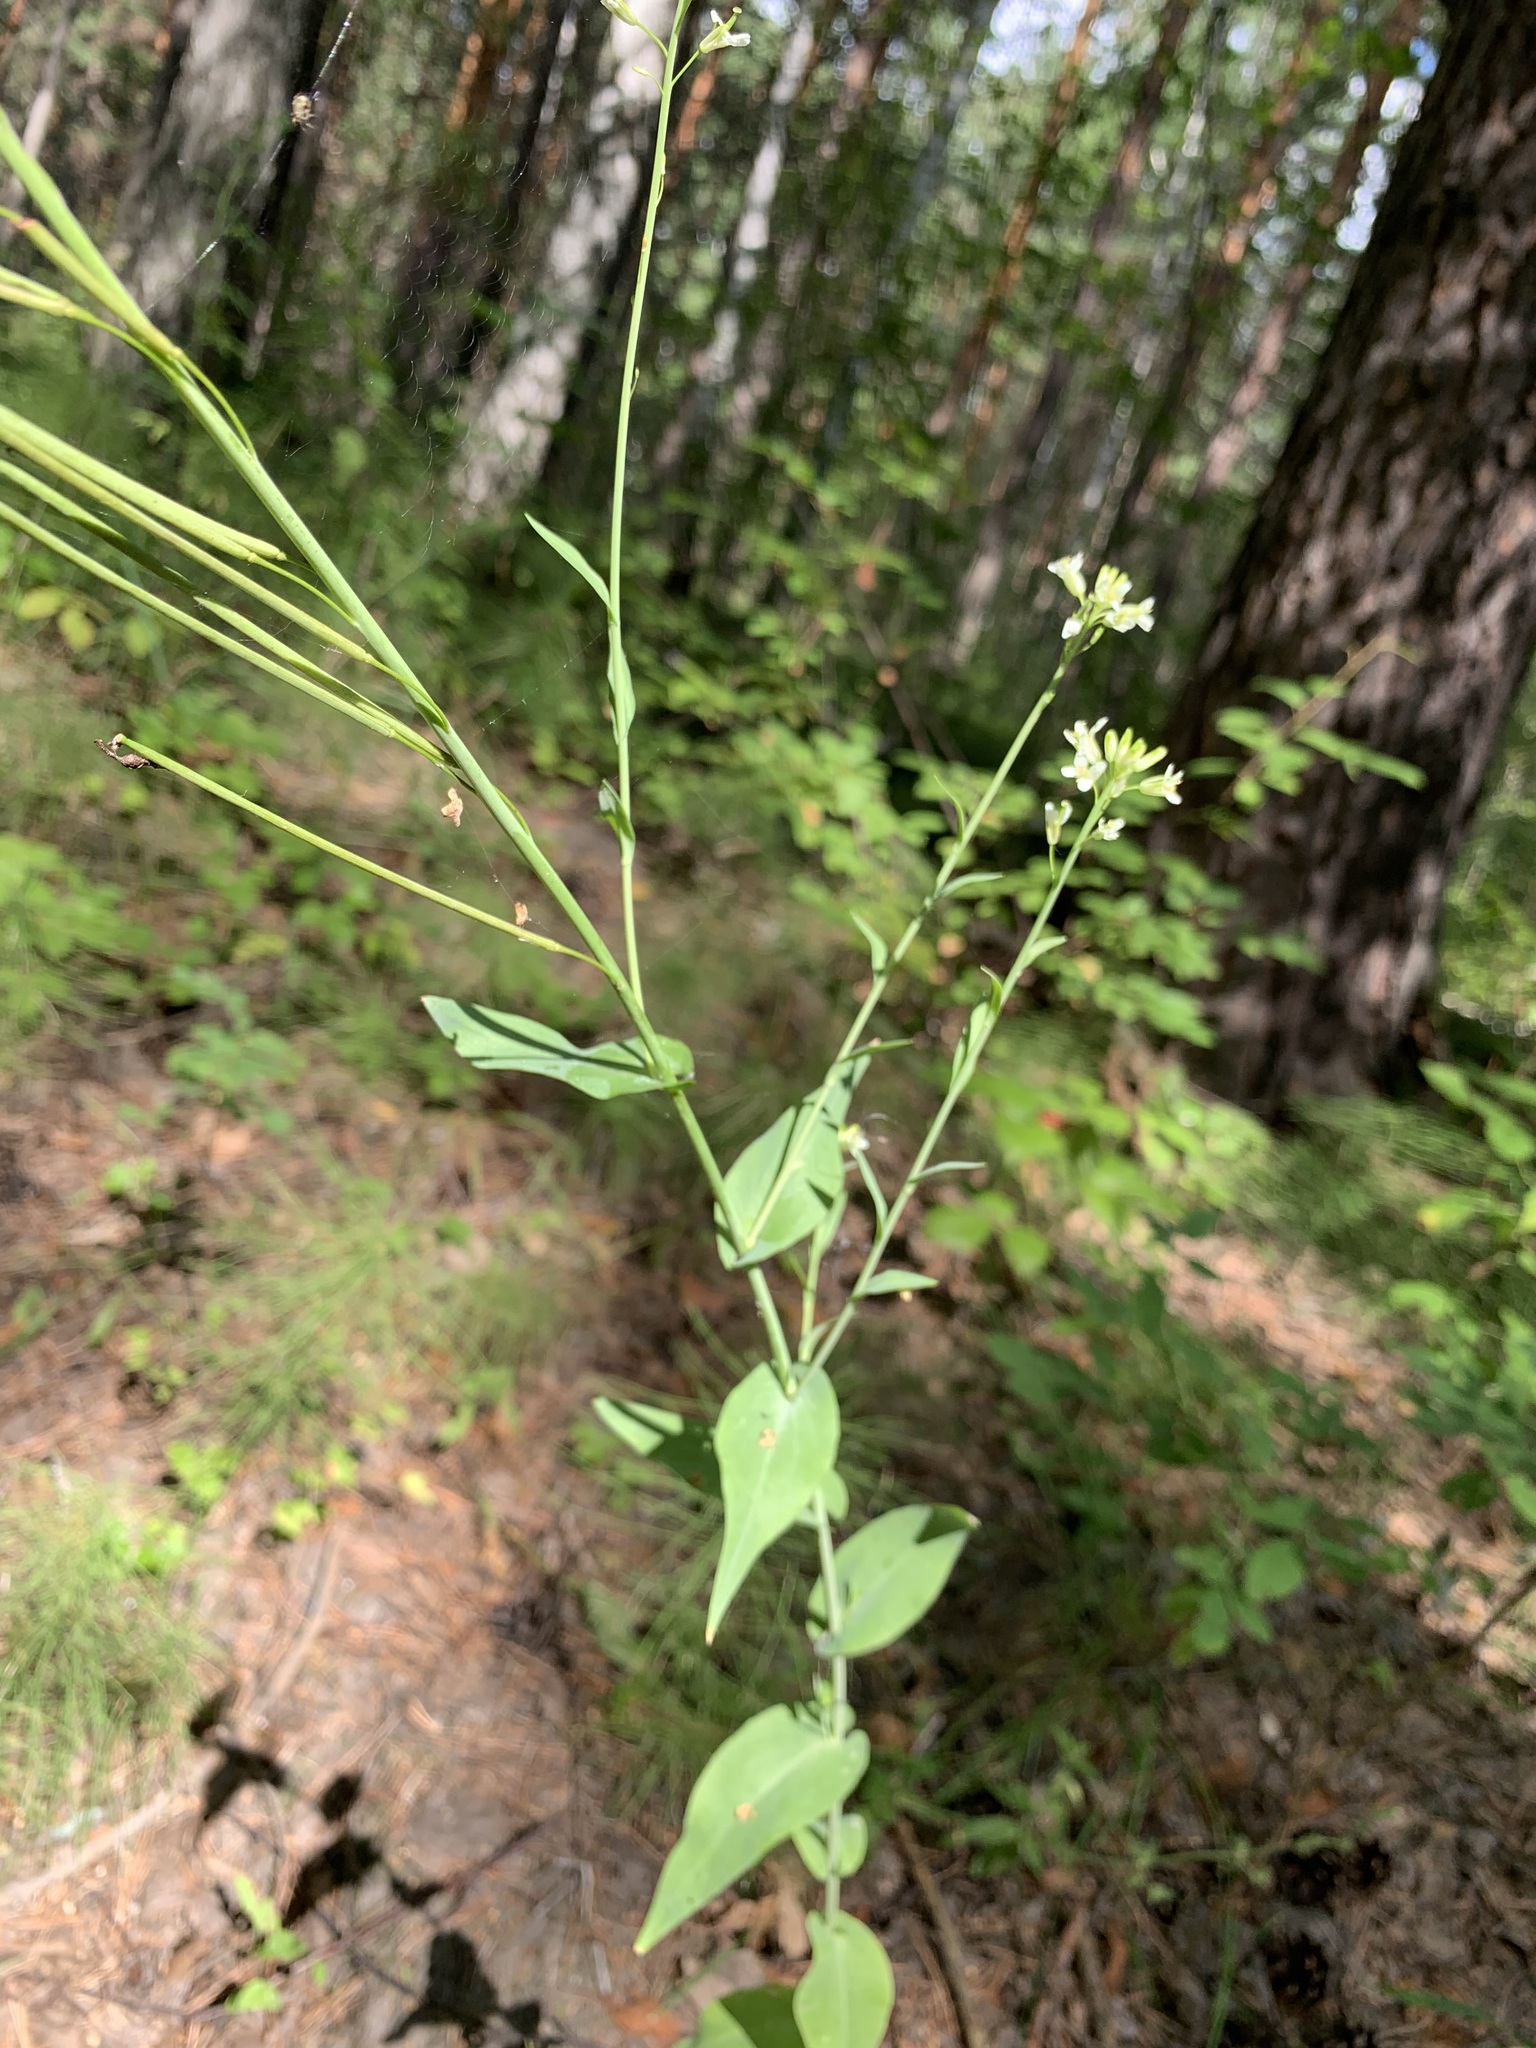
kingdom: Plantae
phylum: Tracheophyta
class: Magnoliopsida
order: Brassicales
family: Brassicaceae
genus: Turritis
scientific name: Turritis glabra
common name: Tower rockcress
